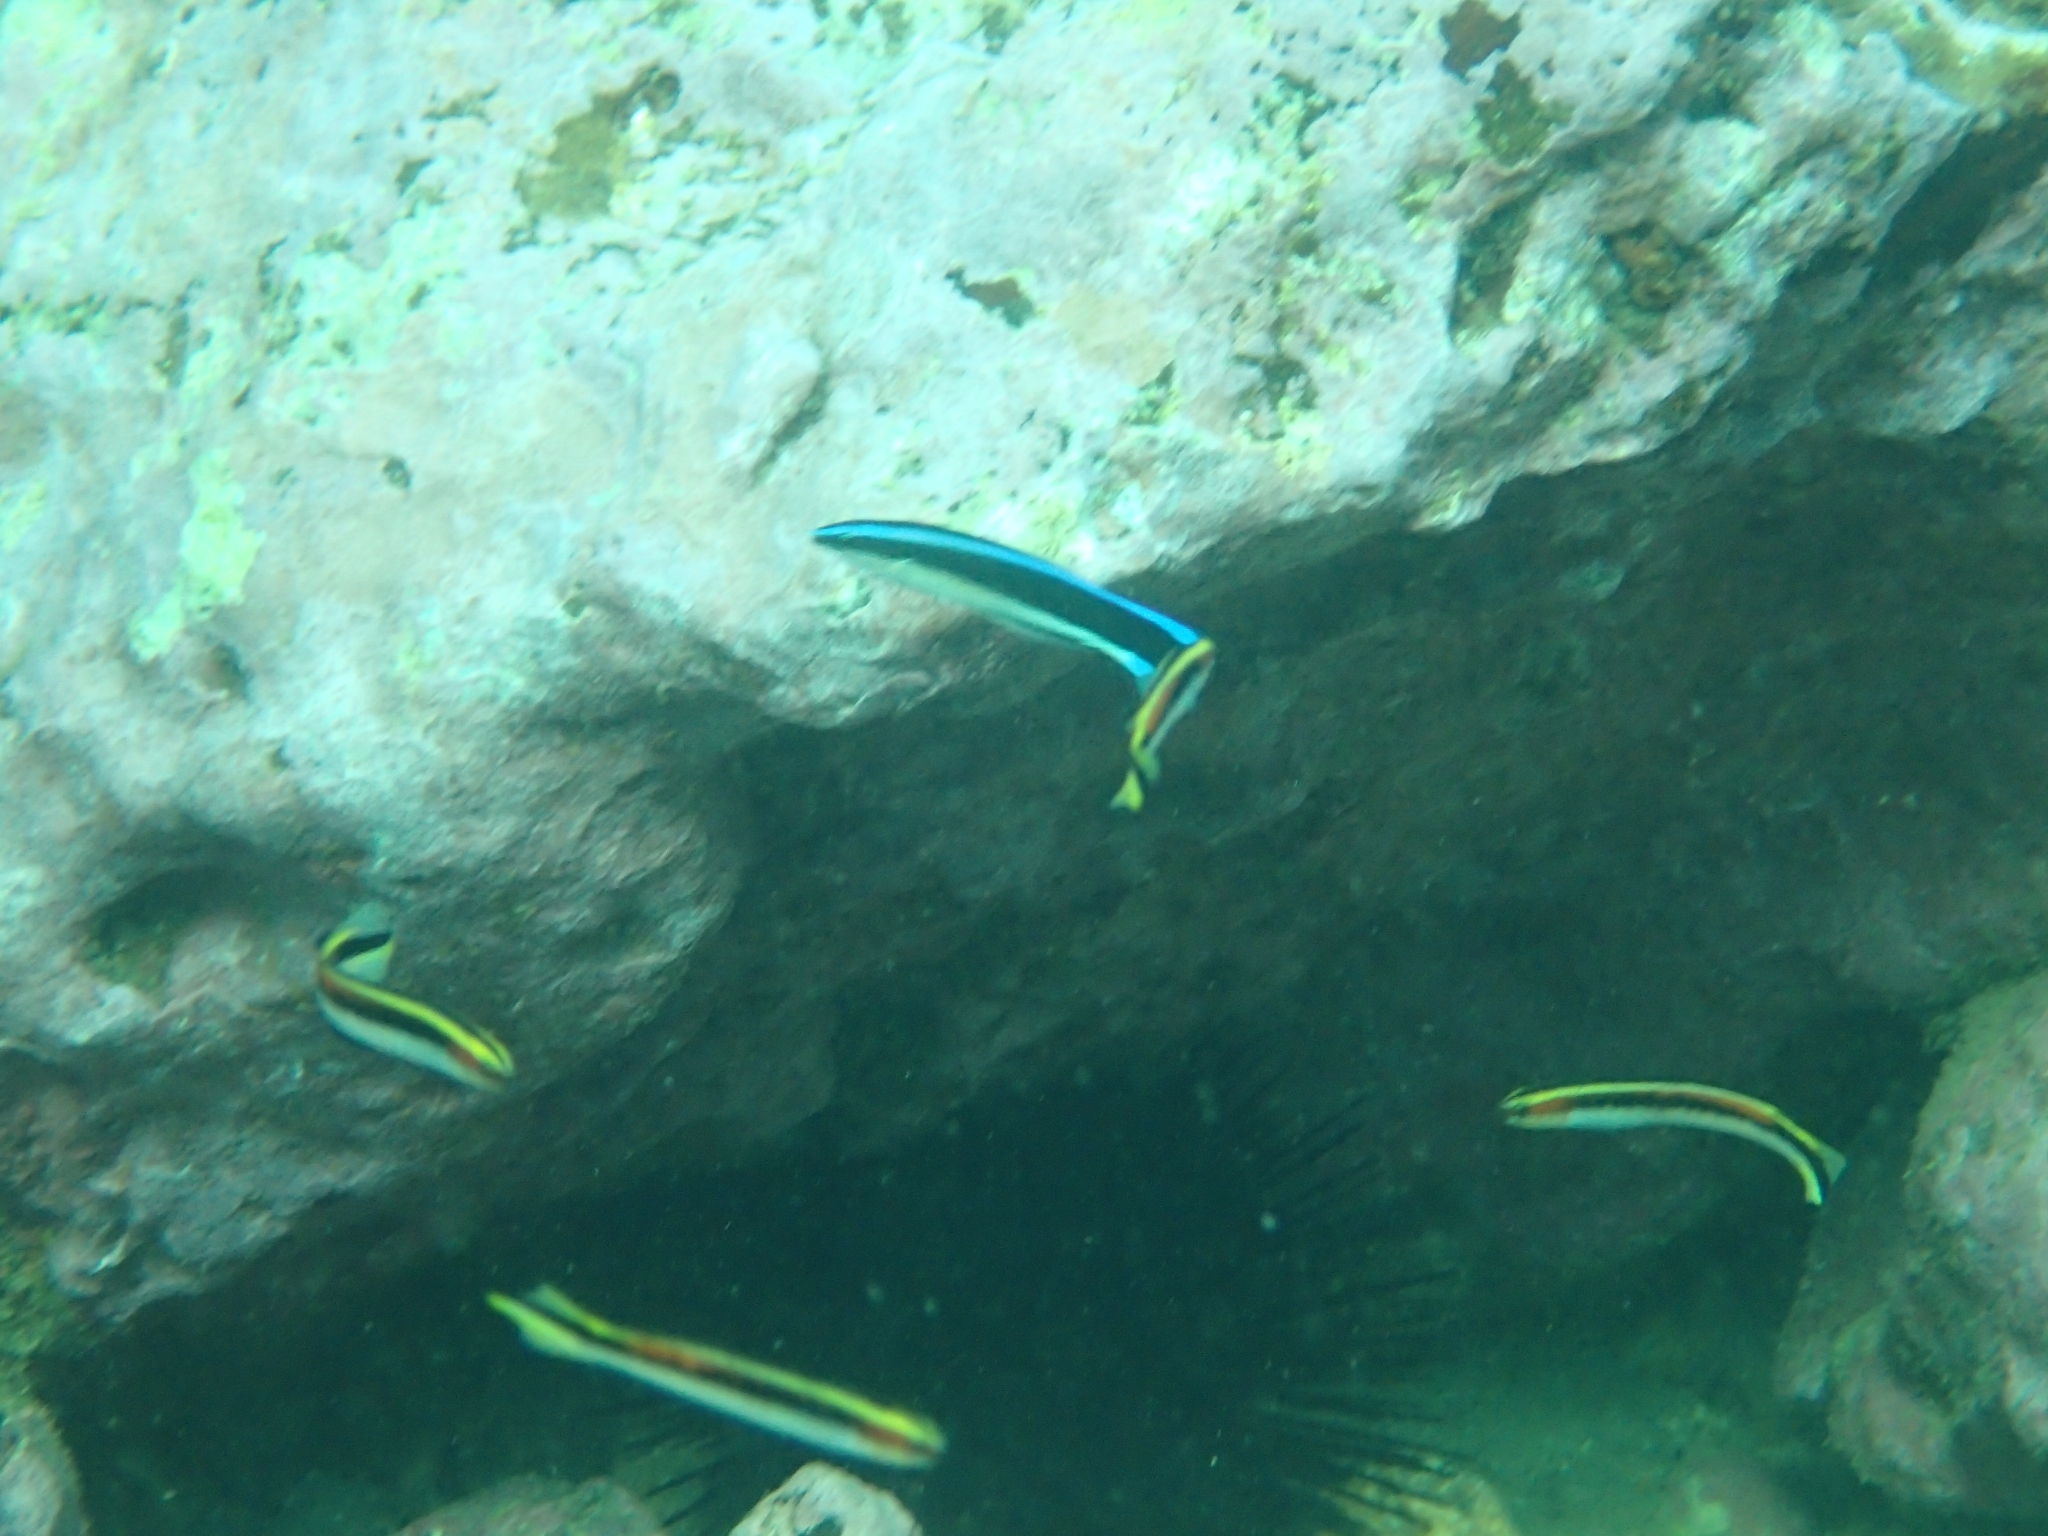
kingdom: Animalia
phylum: Chordata
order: Perciformes
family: Labridae
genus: Labroides
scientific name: Labroides dimidiatus
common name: Blue diesel wrasse
